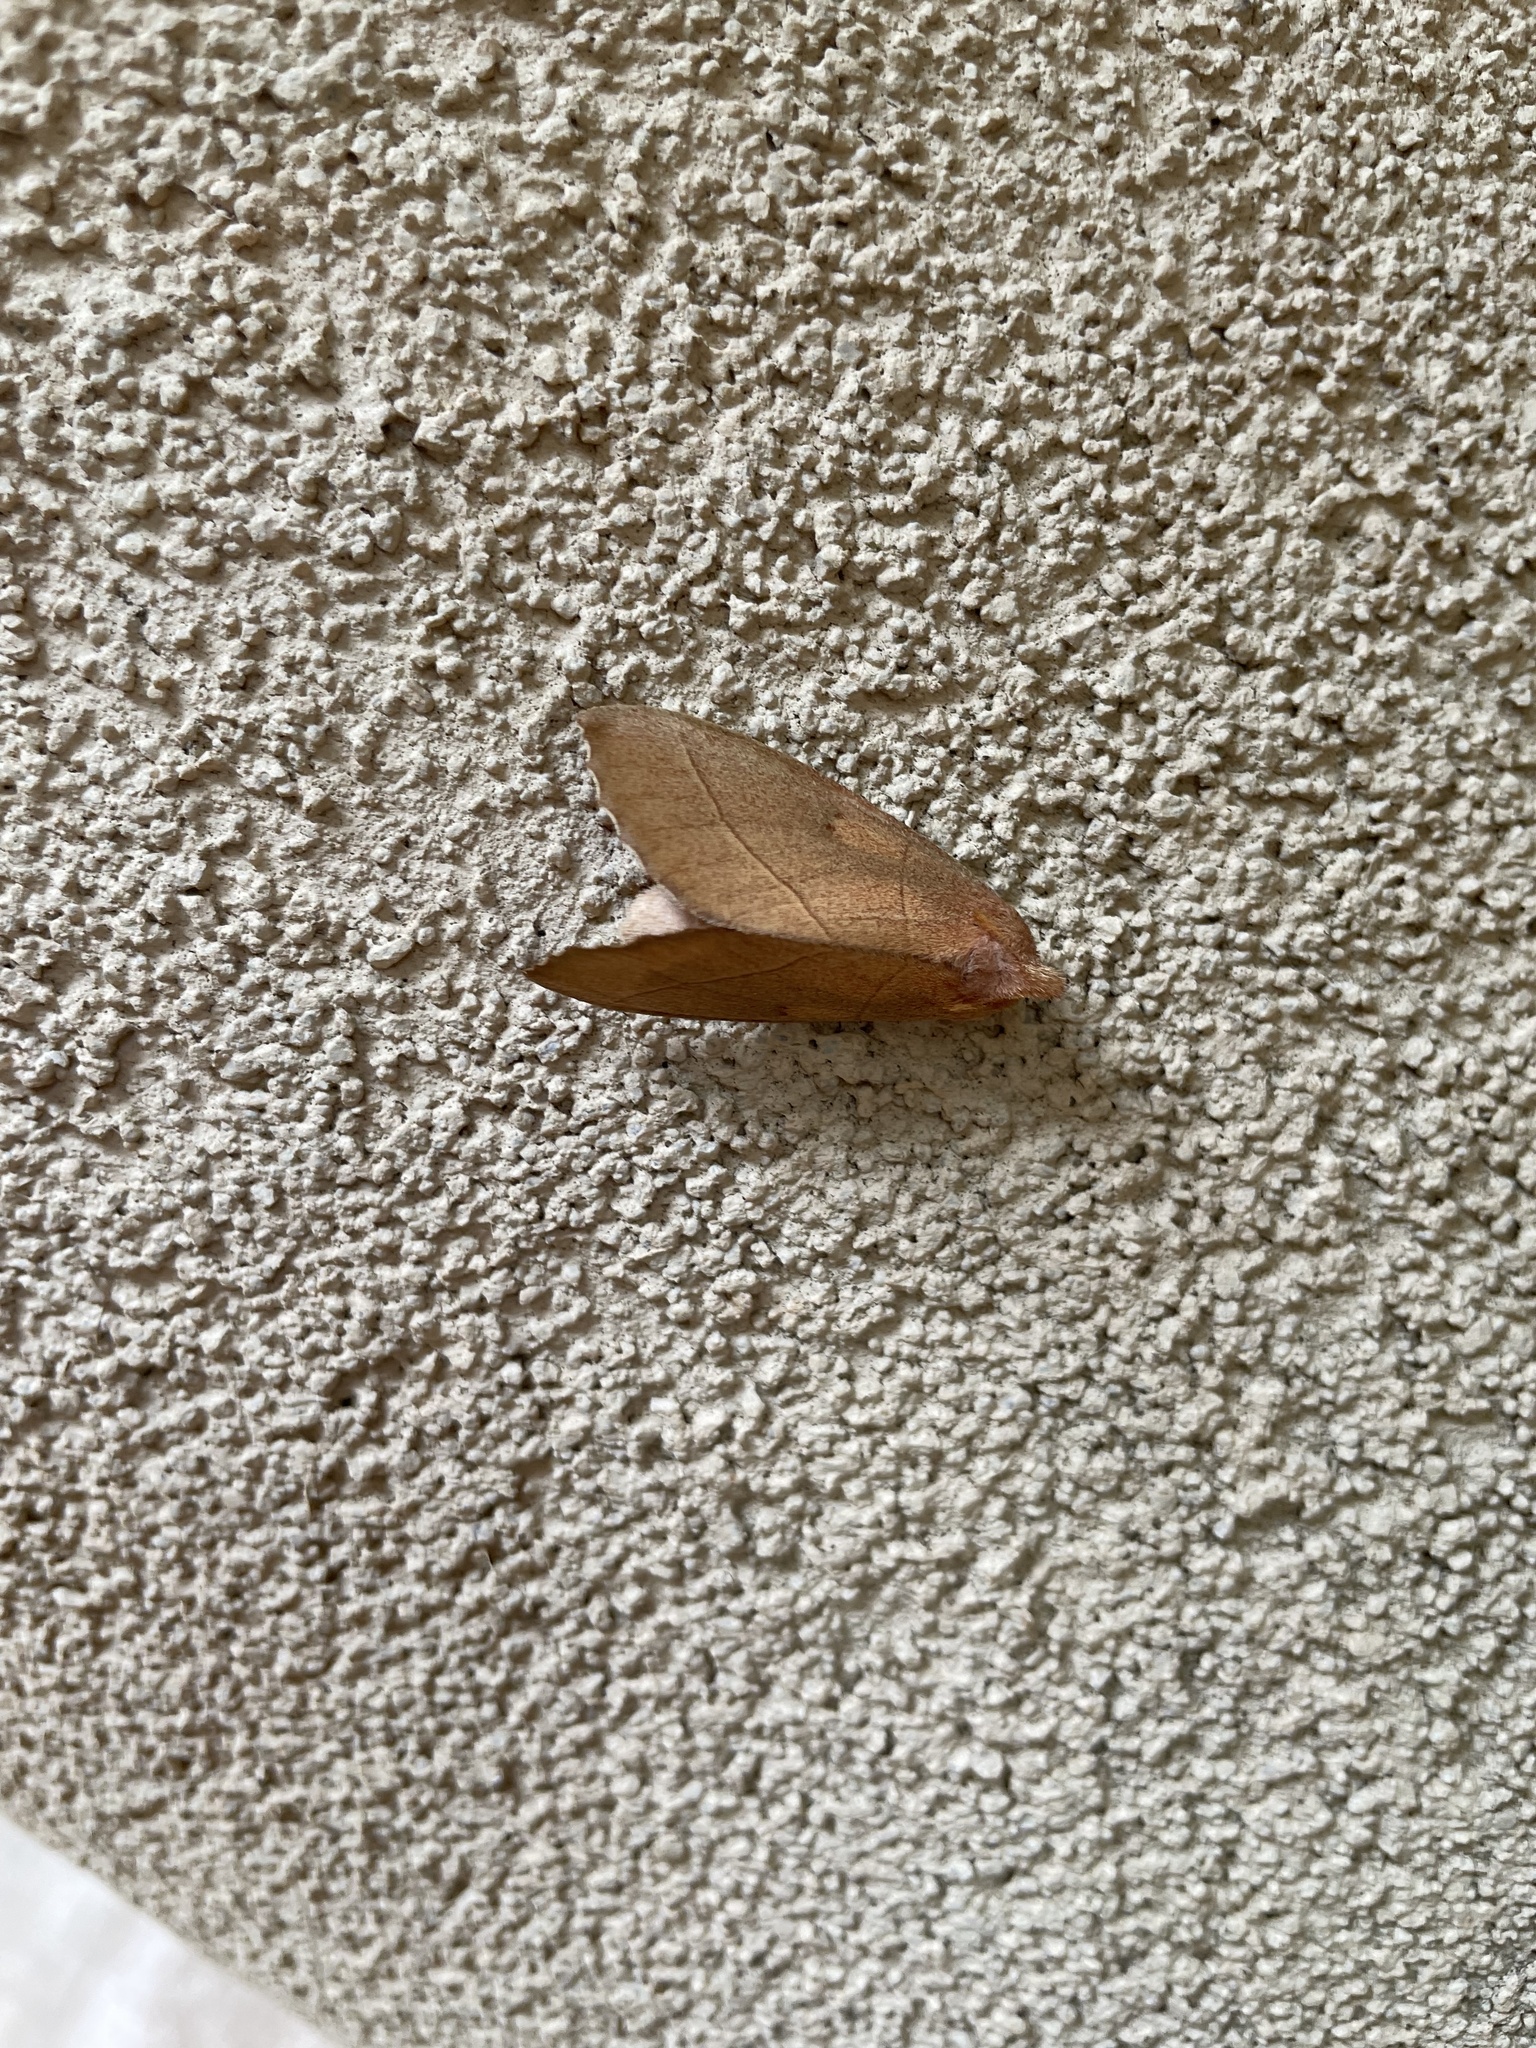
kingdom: Animalia
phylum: Arthropoda
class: Insecta
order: Lepidoptera
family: Notodontidae
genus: Nadata
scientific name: Nadata gibbosa
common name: White-dotted prominent
